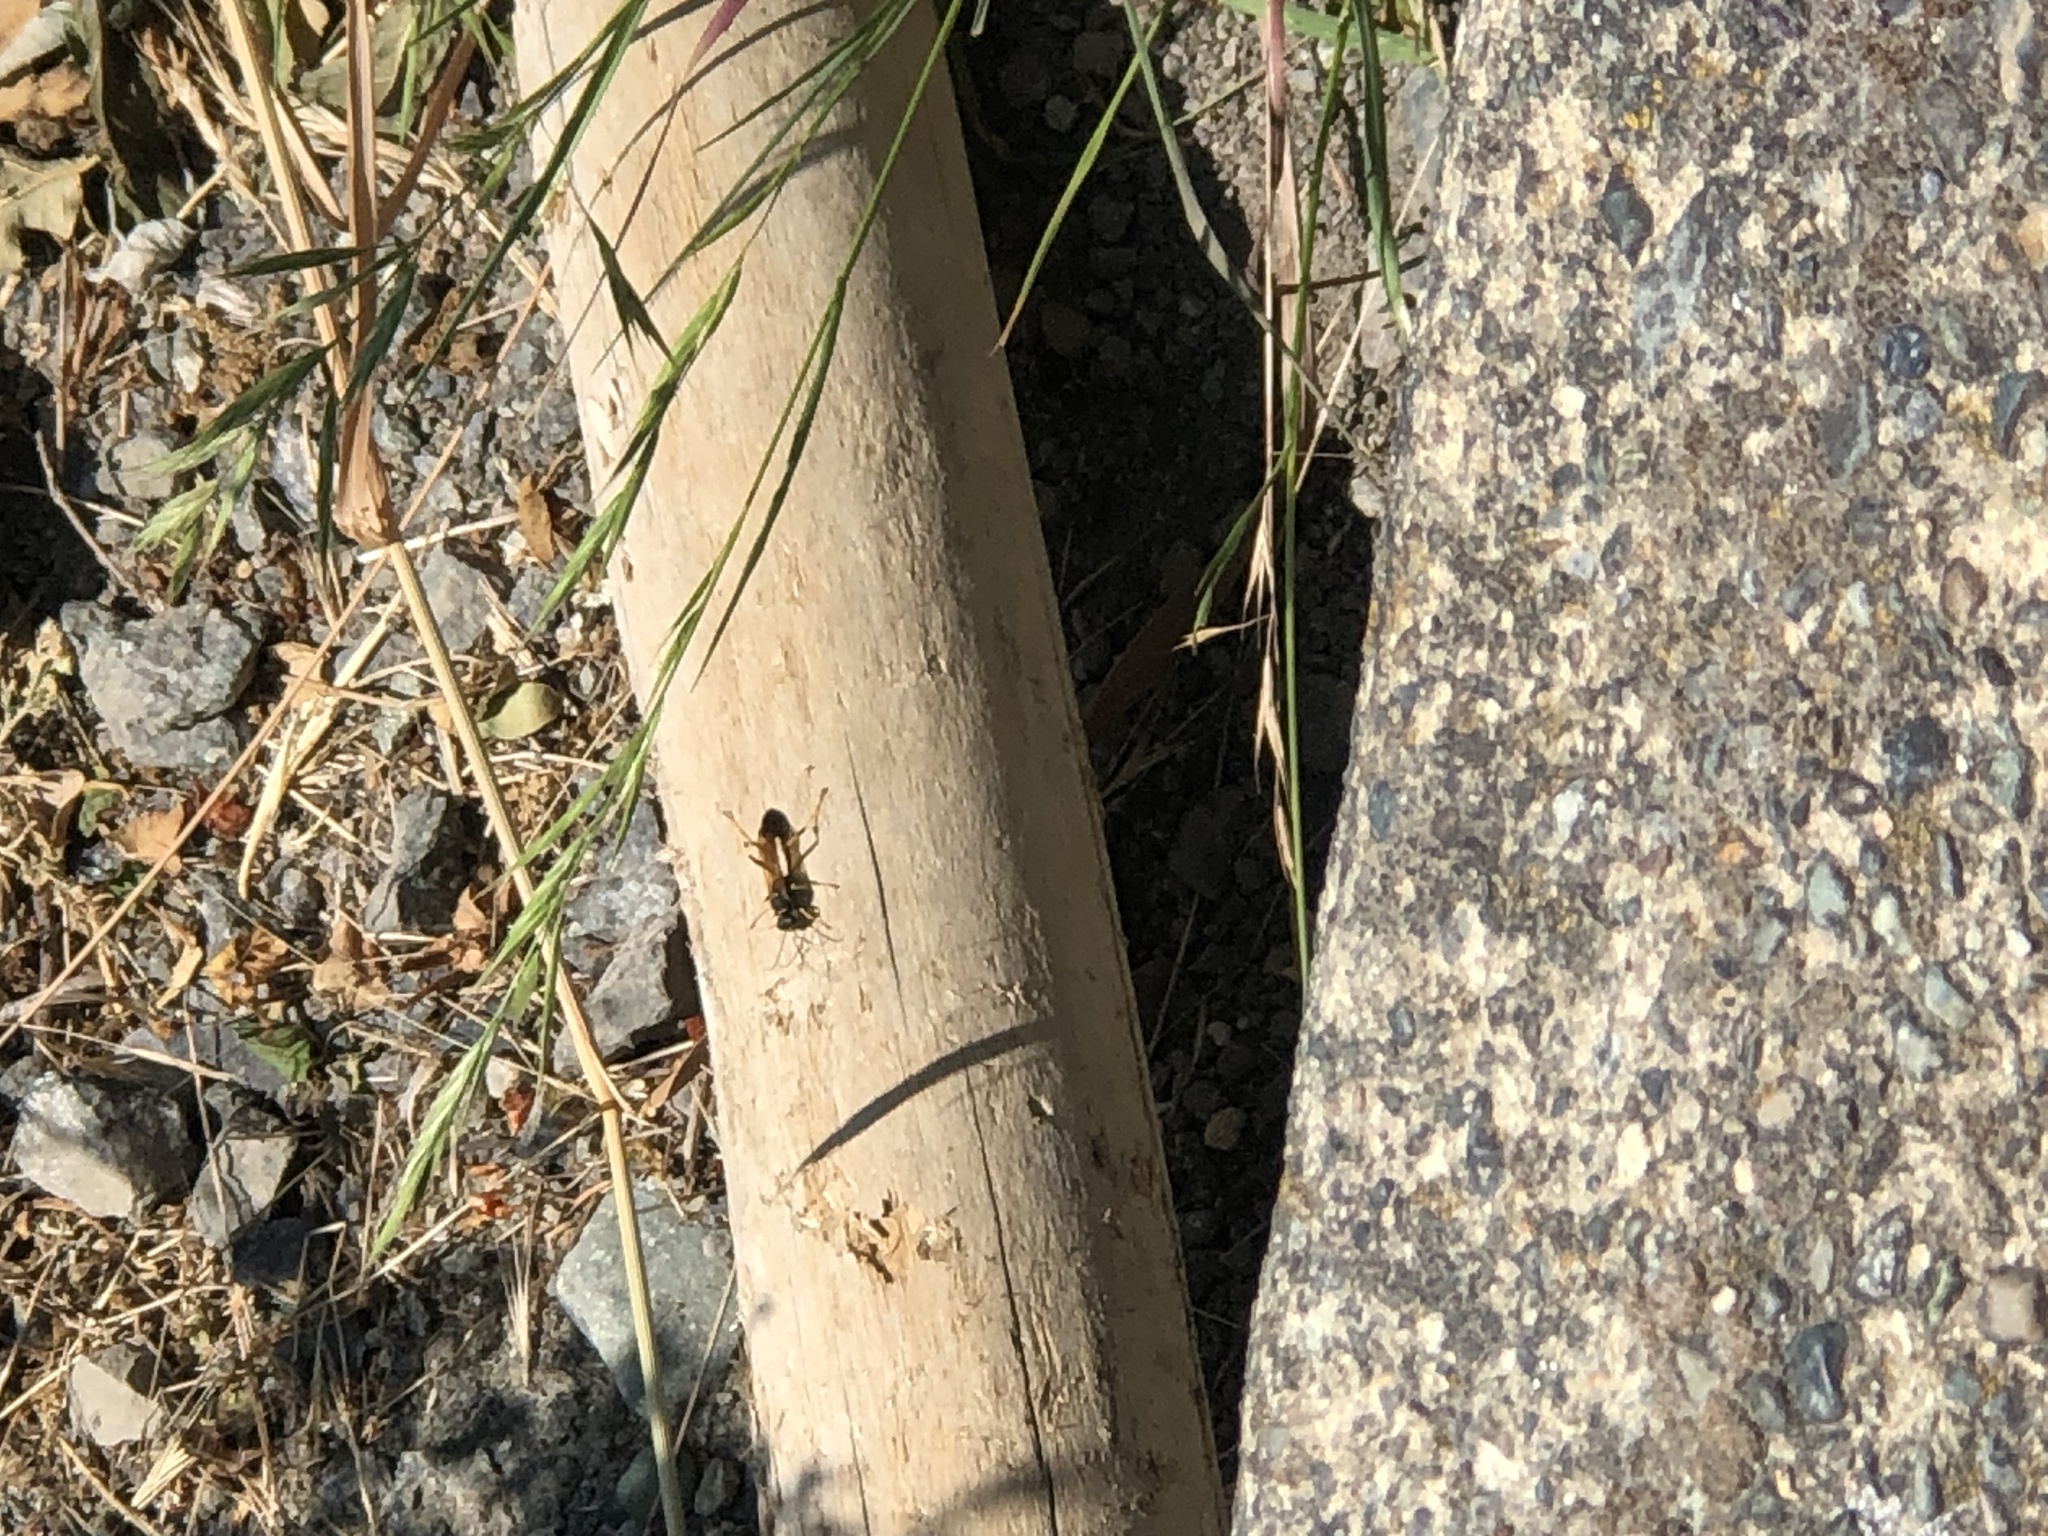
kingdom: Animalia
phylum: Arthropoda
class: Insecta
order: Hymenoptera
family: Sphecidae
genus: Sceliphron
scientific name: Sceliphron caementarium
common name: Mud dauber
